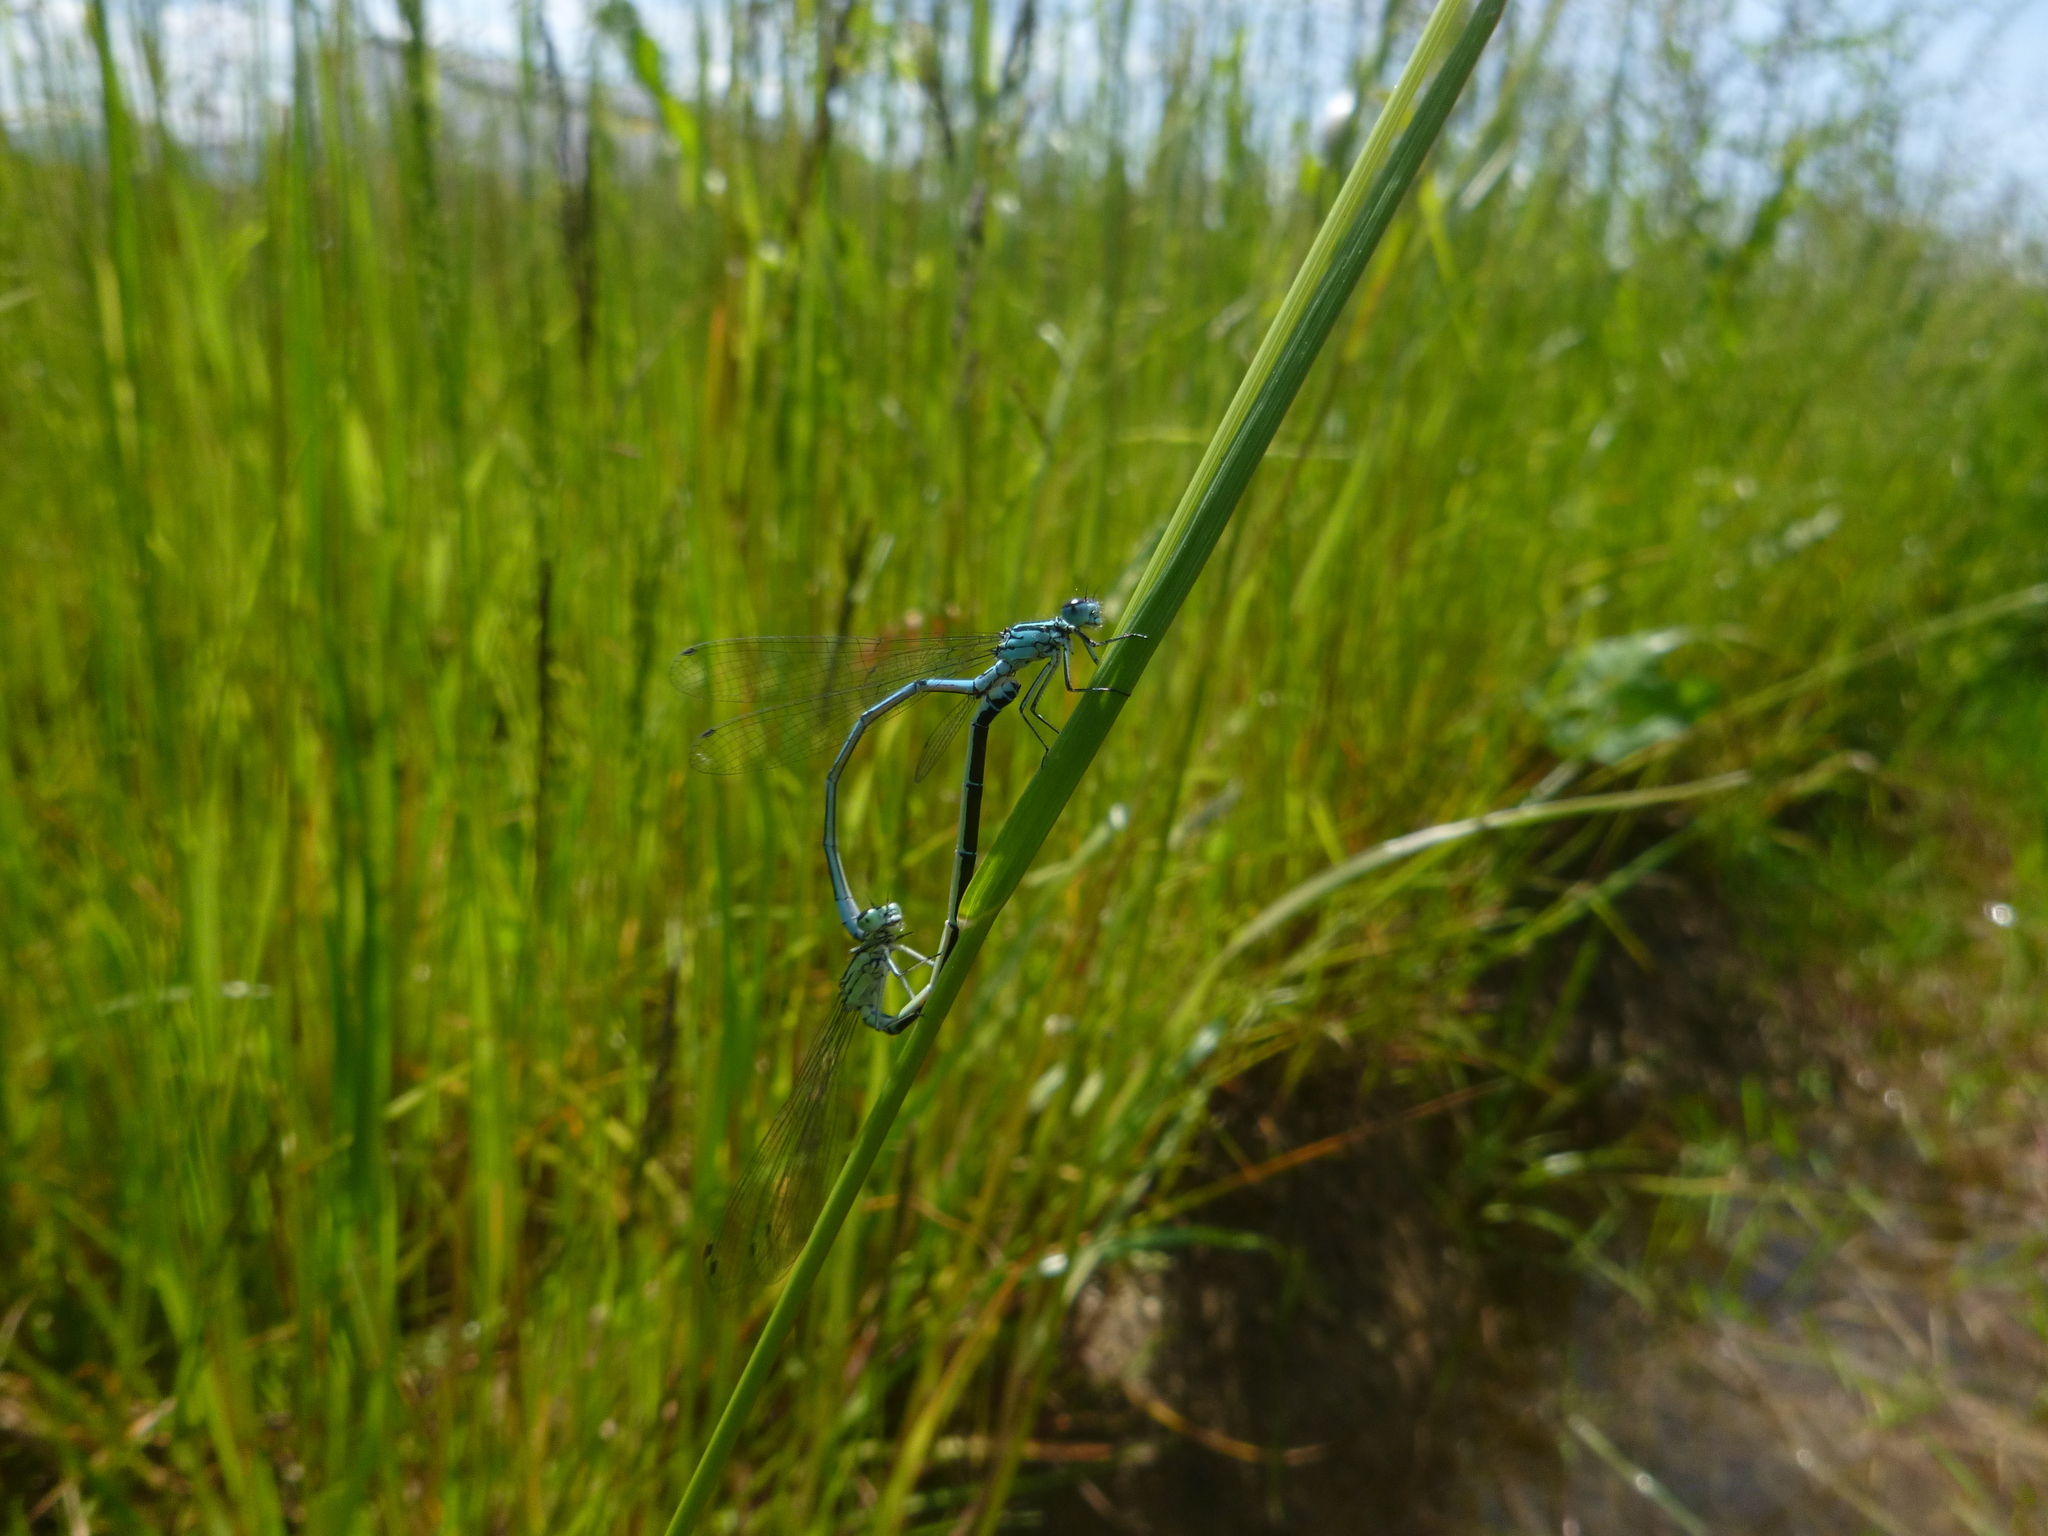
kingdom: Animalia
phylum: Arthropoda
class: Insecta
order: Odonata
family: Coenagrionidae
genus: Coenagrion
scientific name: Coenagrion puella
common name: Azure damselfly
